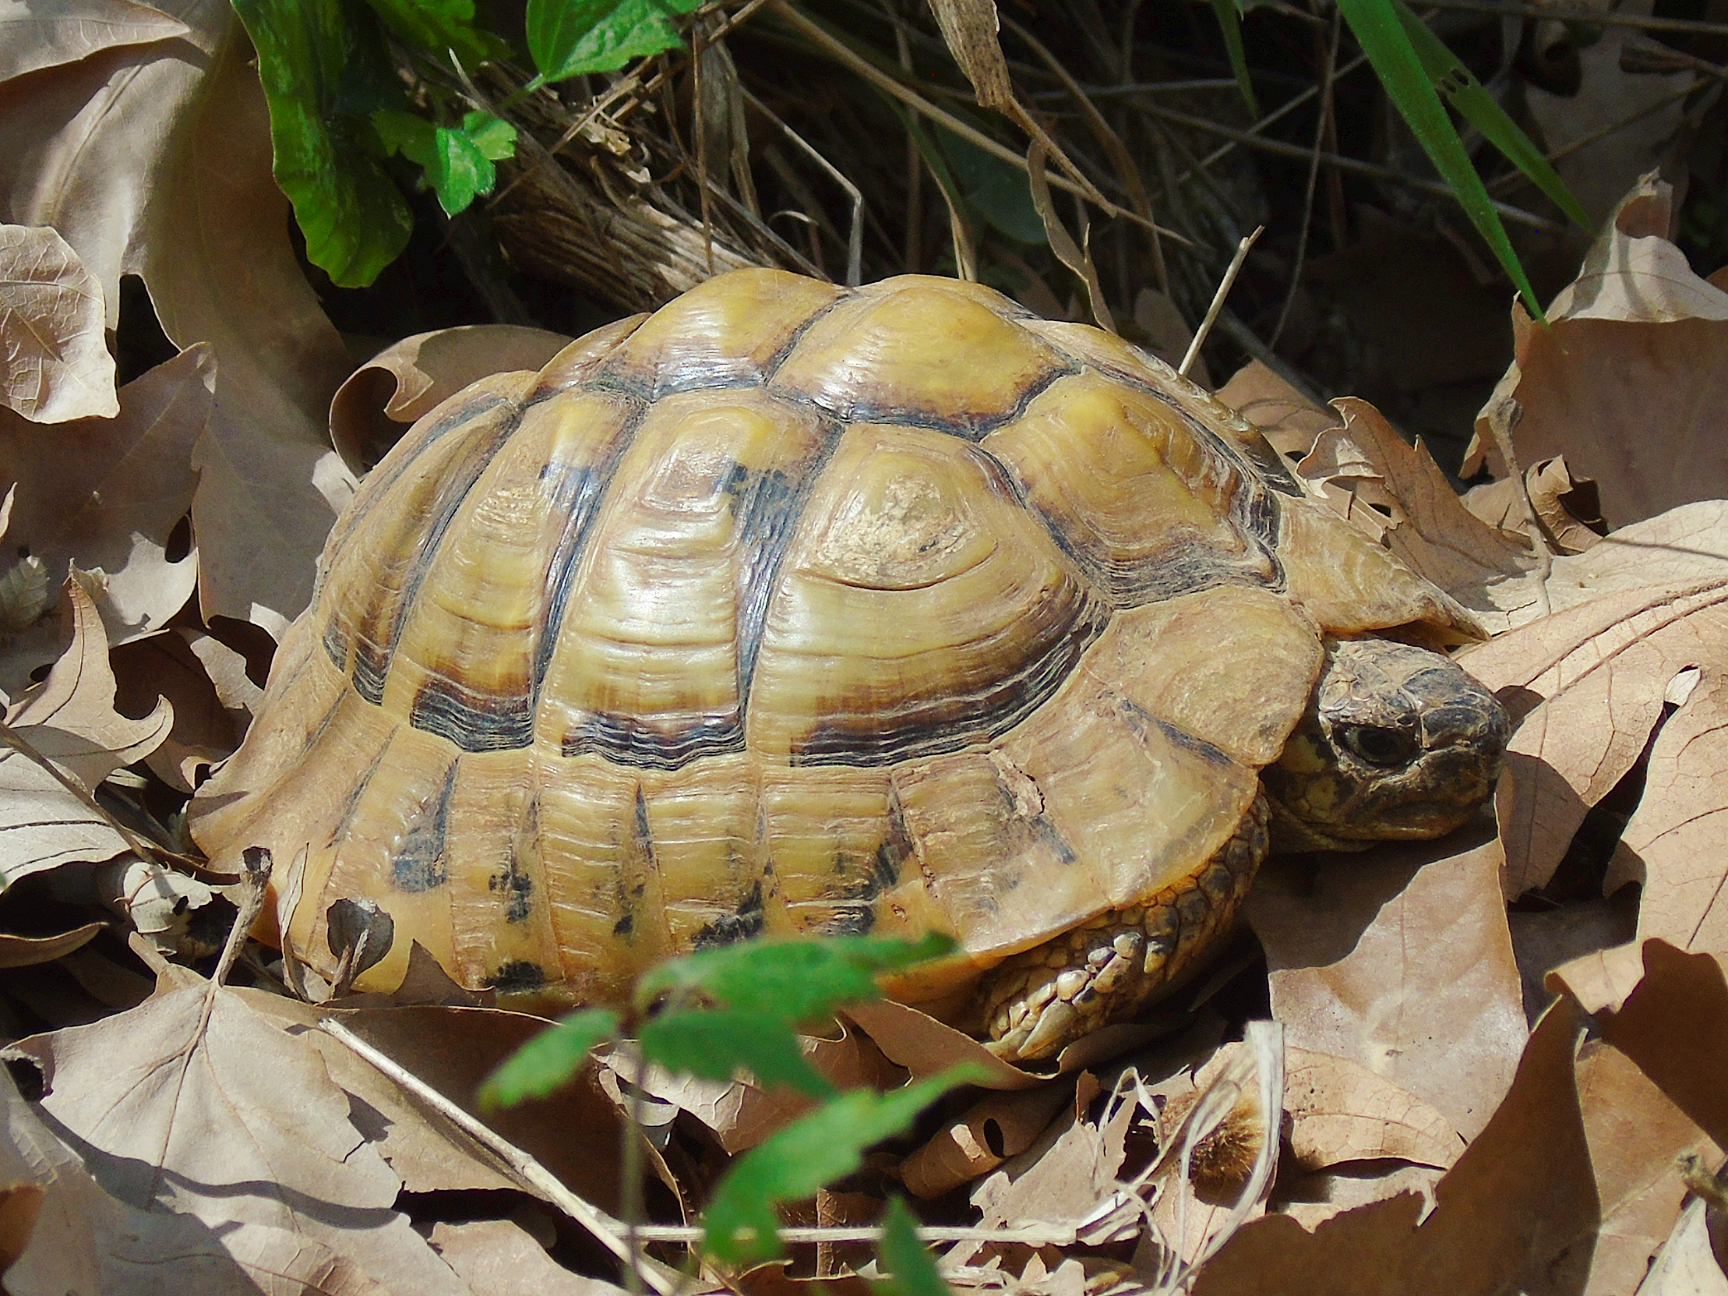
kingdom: Animalia
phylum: Chordata
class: Testudines
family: Testudinidae
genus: Testudo
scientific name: Testudo hermanni
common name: Hermann's tortoise
